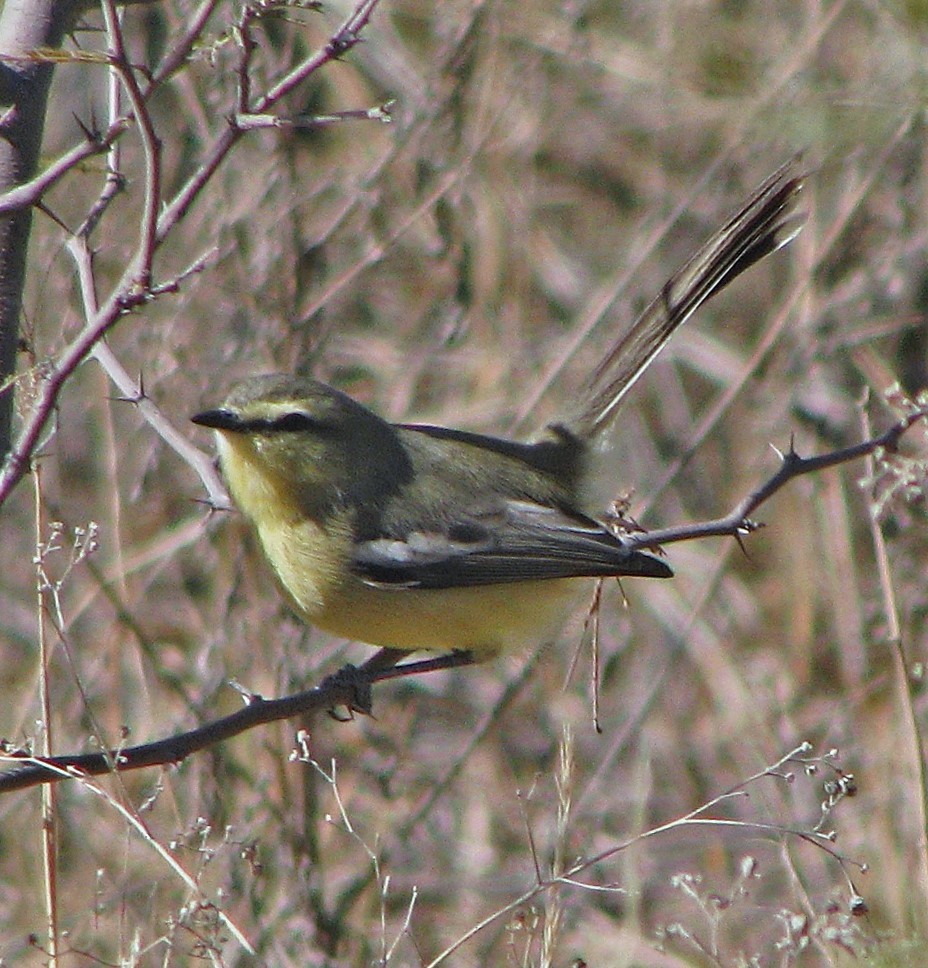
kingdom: Animalia
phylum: Chordata
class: Aves
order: Passeriformes
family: Tyrannidae
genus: Stigmatura
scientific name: Stigmatura budytoides
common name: Greater wagtail-tyrant
